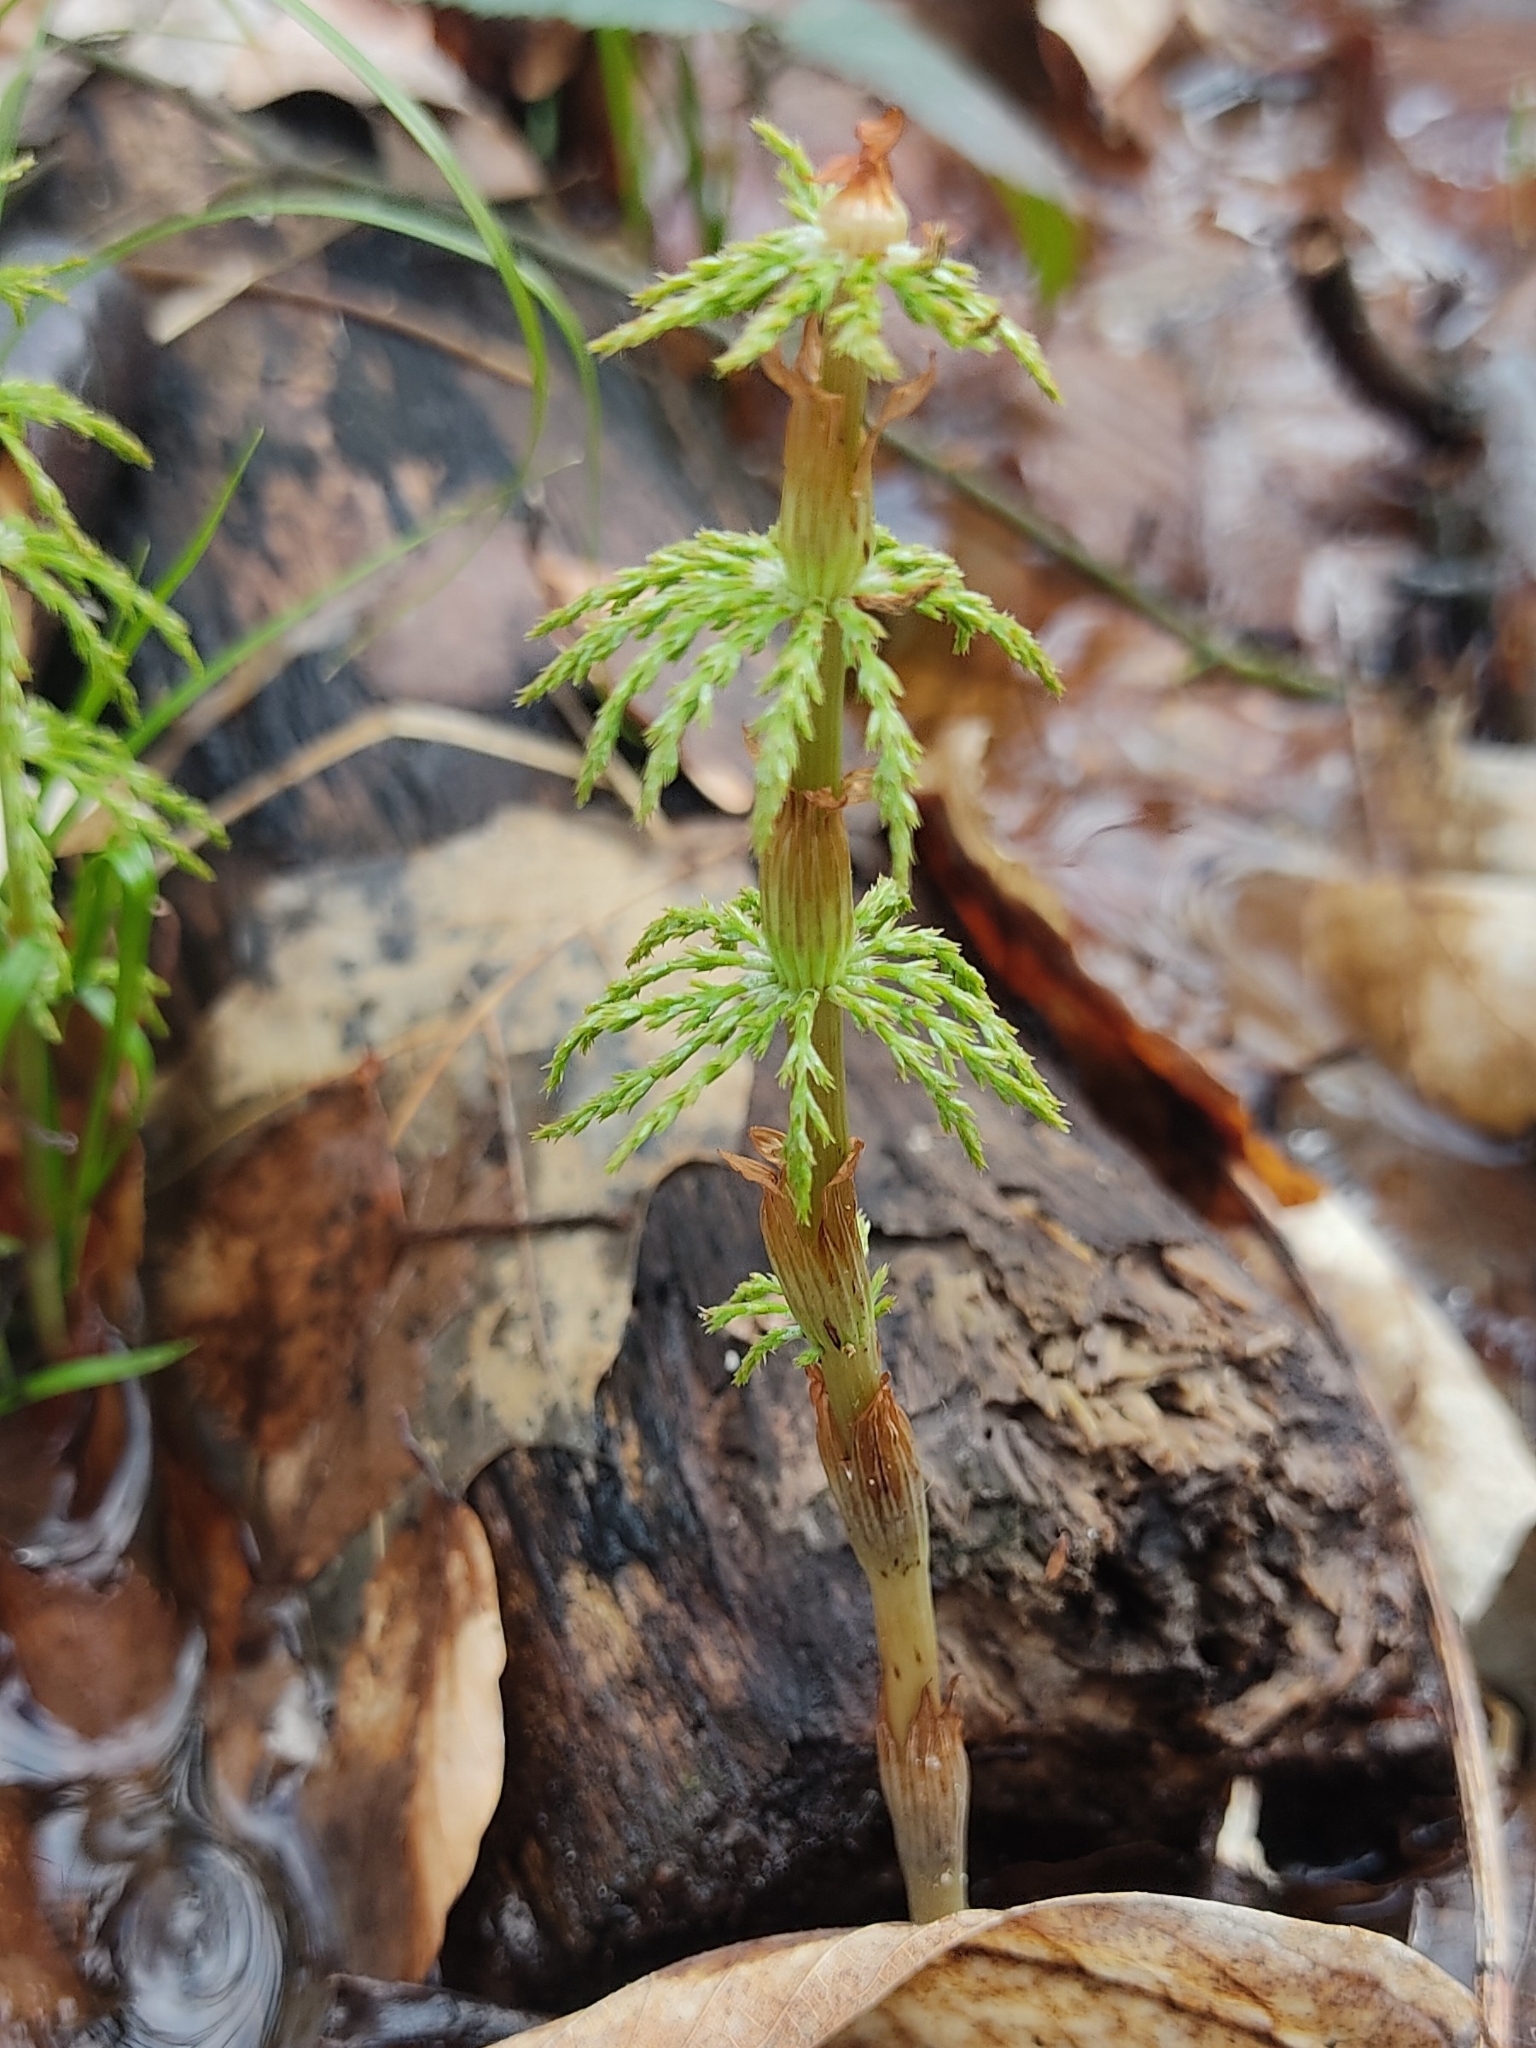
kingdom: Plantae
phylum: Tracheophyta
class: Polypodiopsida
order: Equisetales
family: Equisetaceae
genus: Equisetum
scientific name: Equisetum sylvaticum
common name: Wood horsetail
